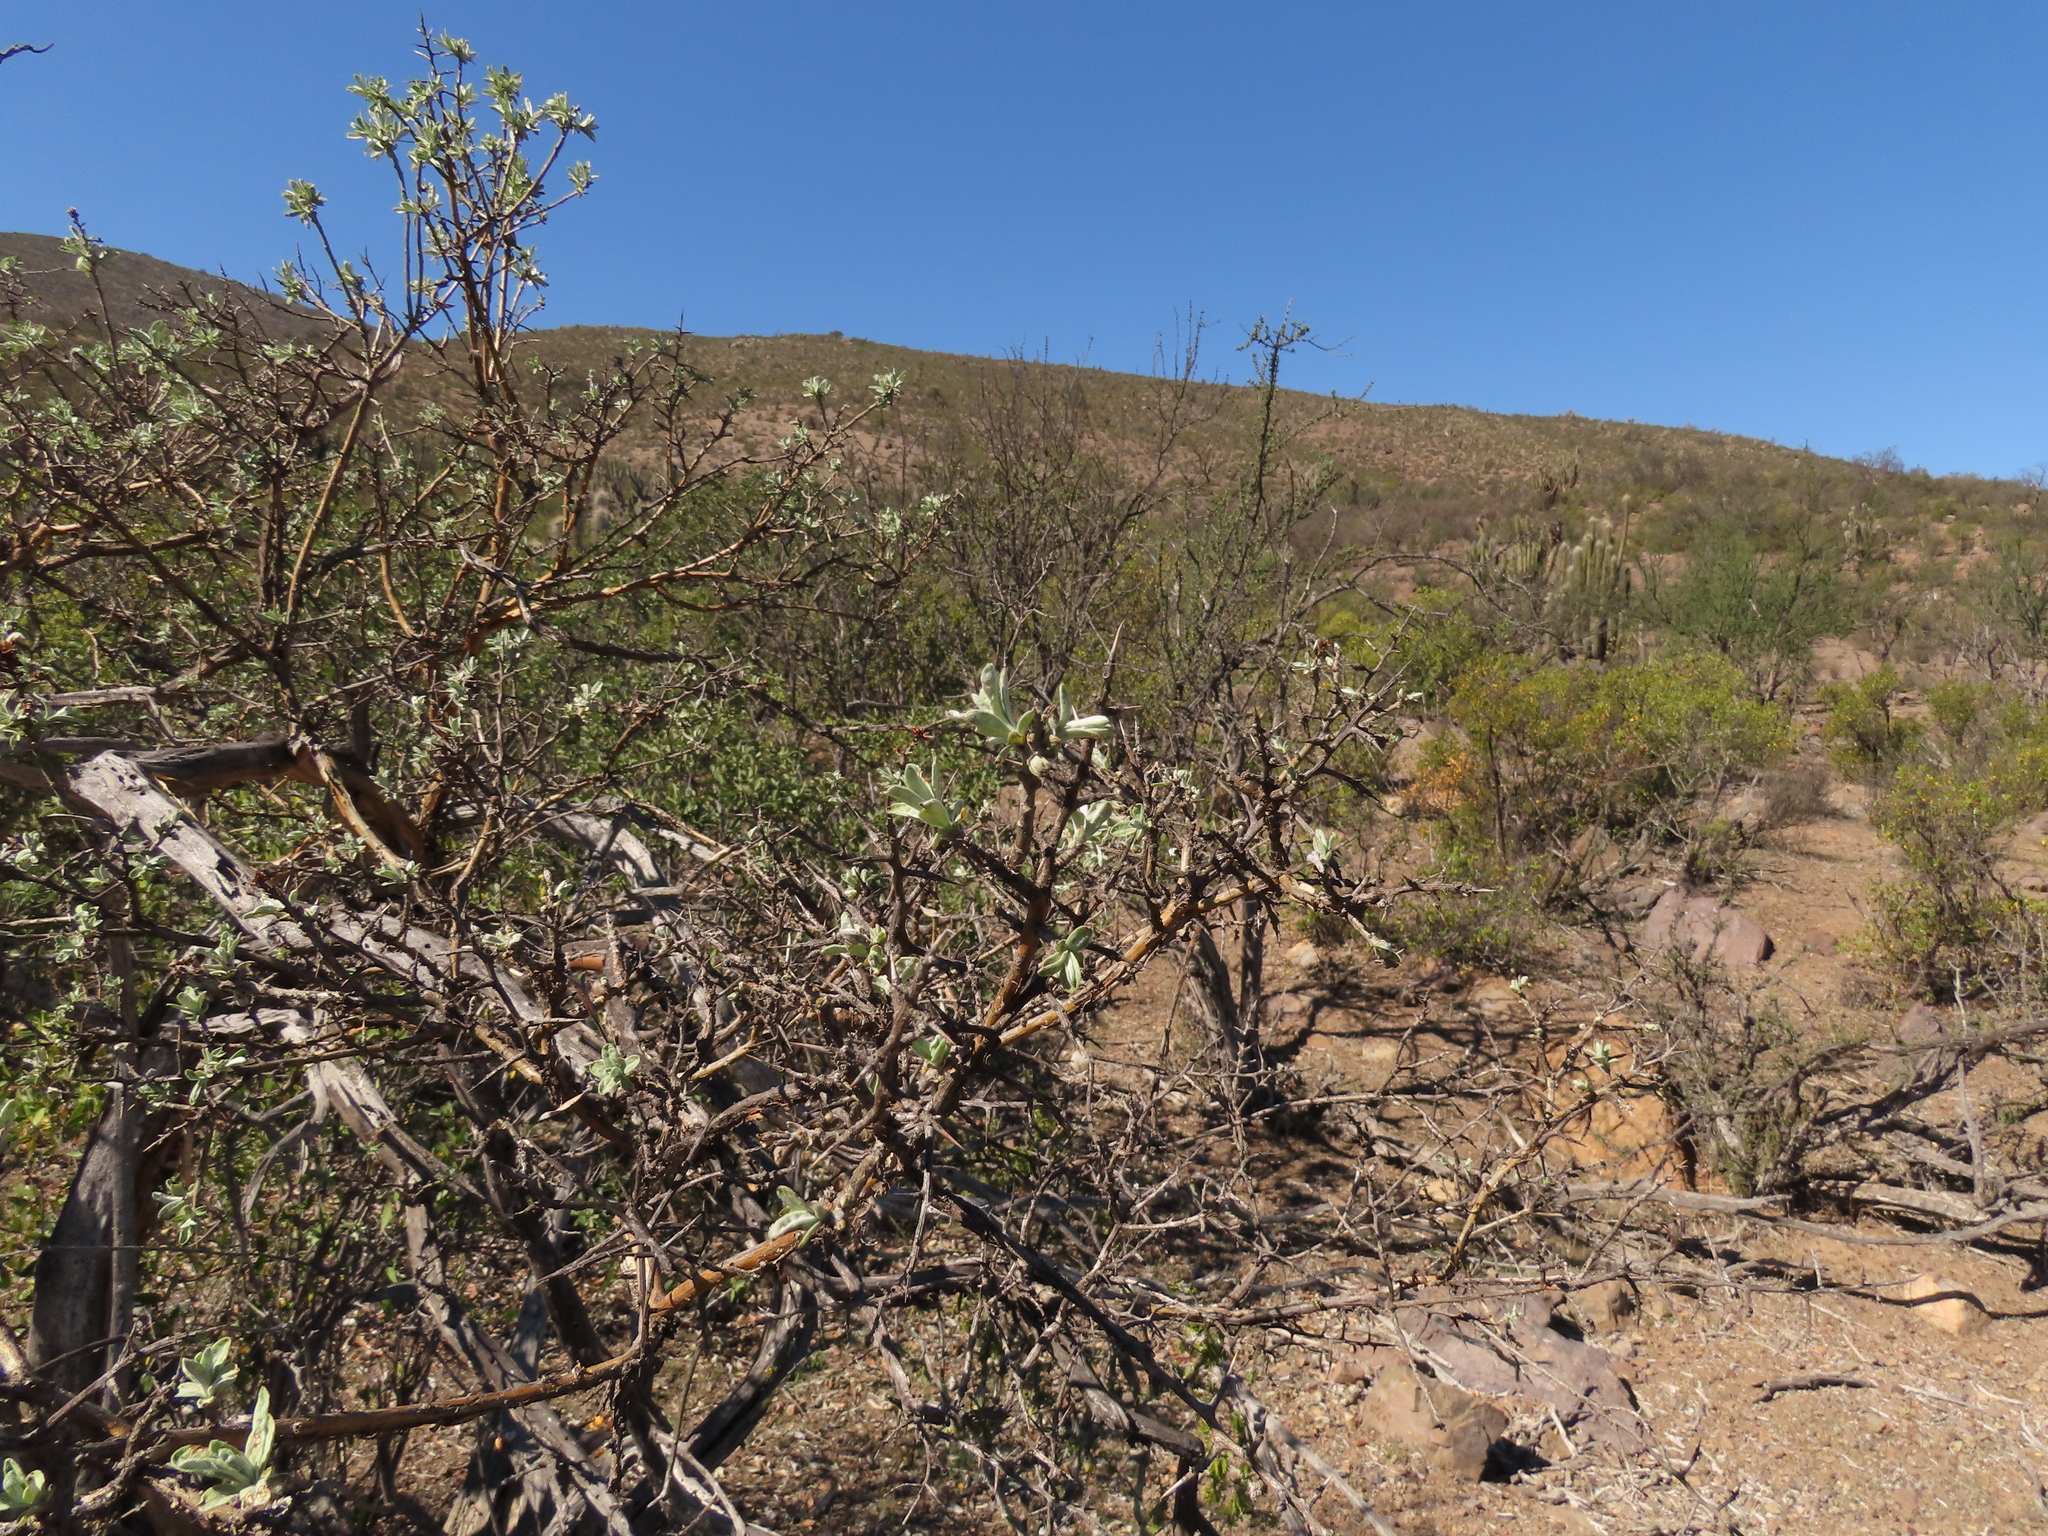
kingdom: Plantae
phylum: Tracheophyta
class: Magnoliopsida
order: Asterales
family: Asteraceae
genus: Proustia
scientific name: Proustia cuneifolia
